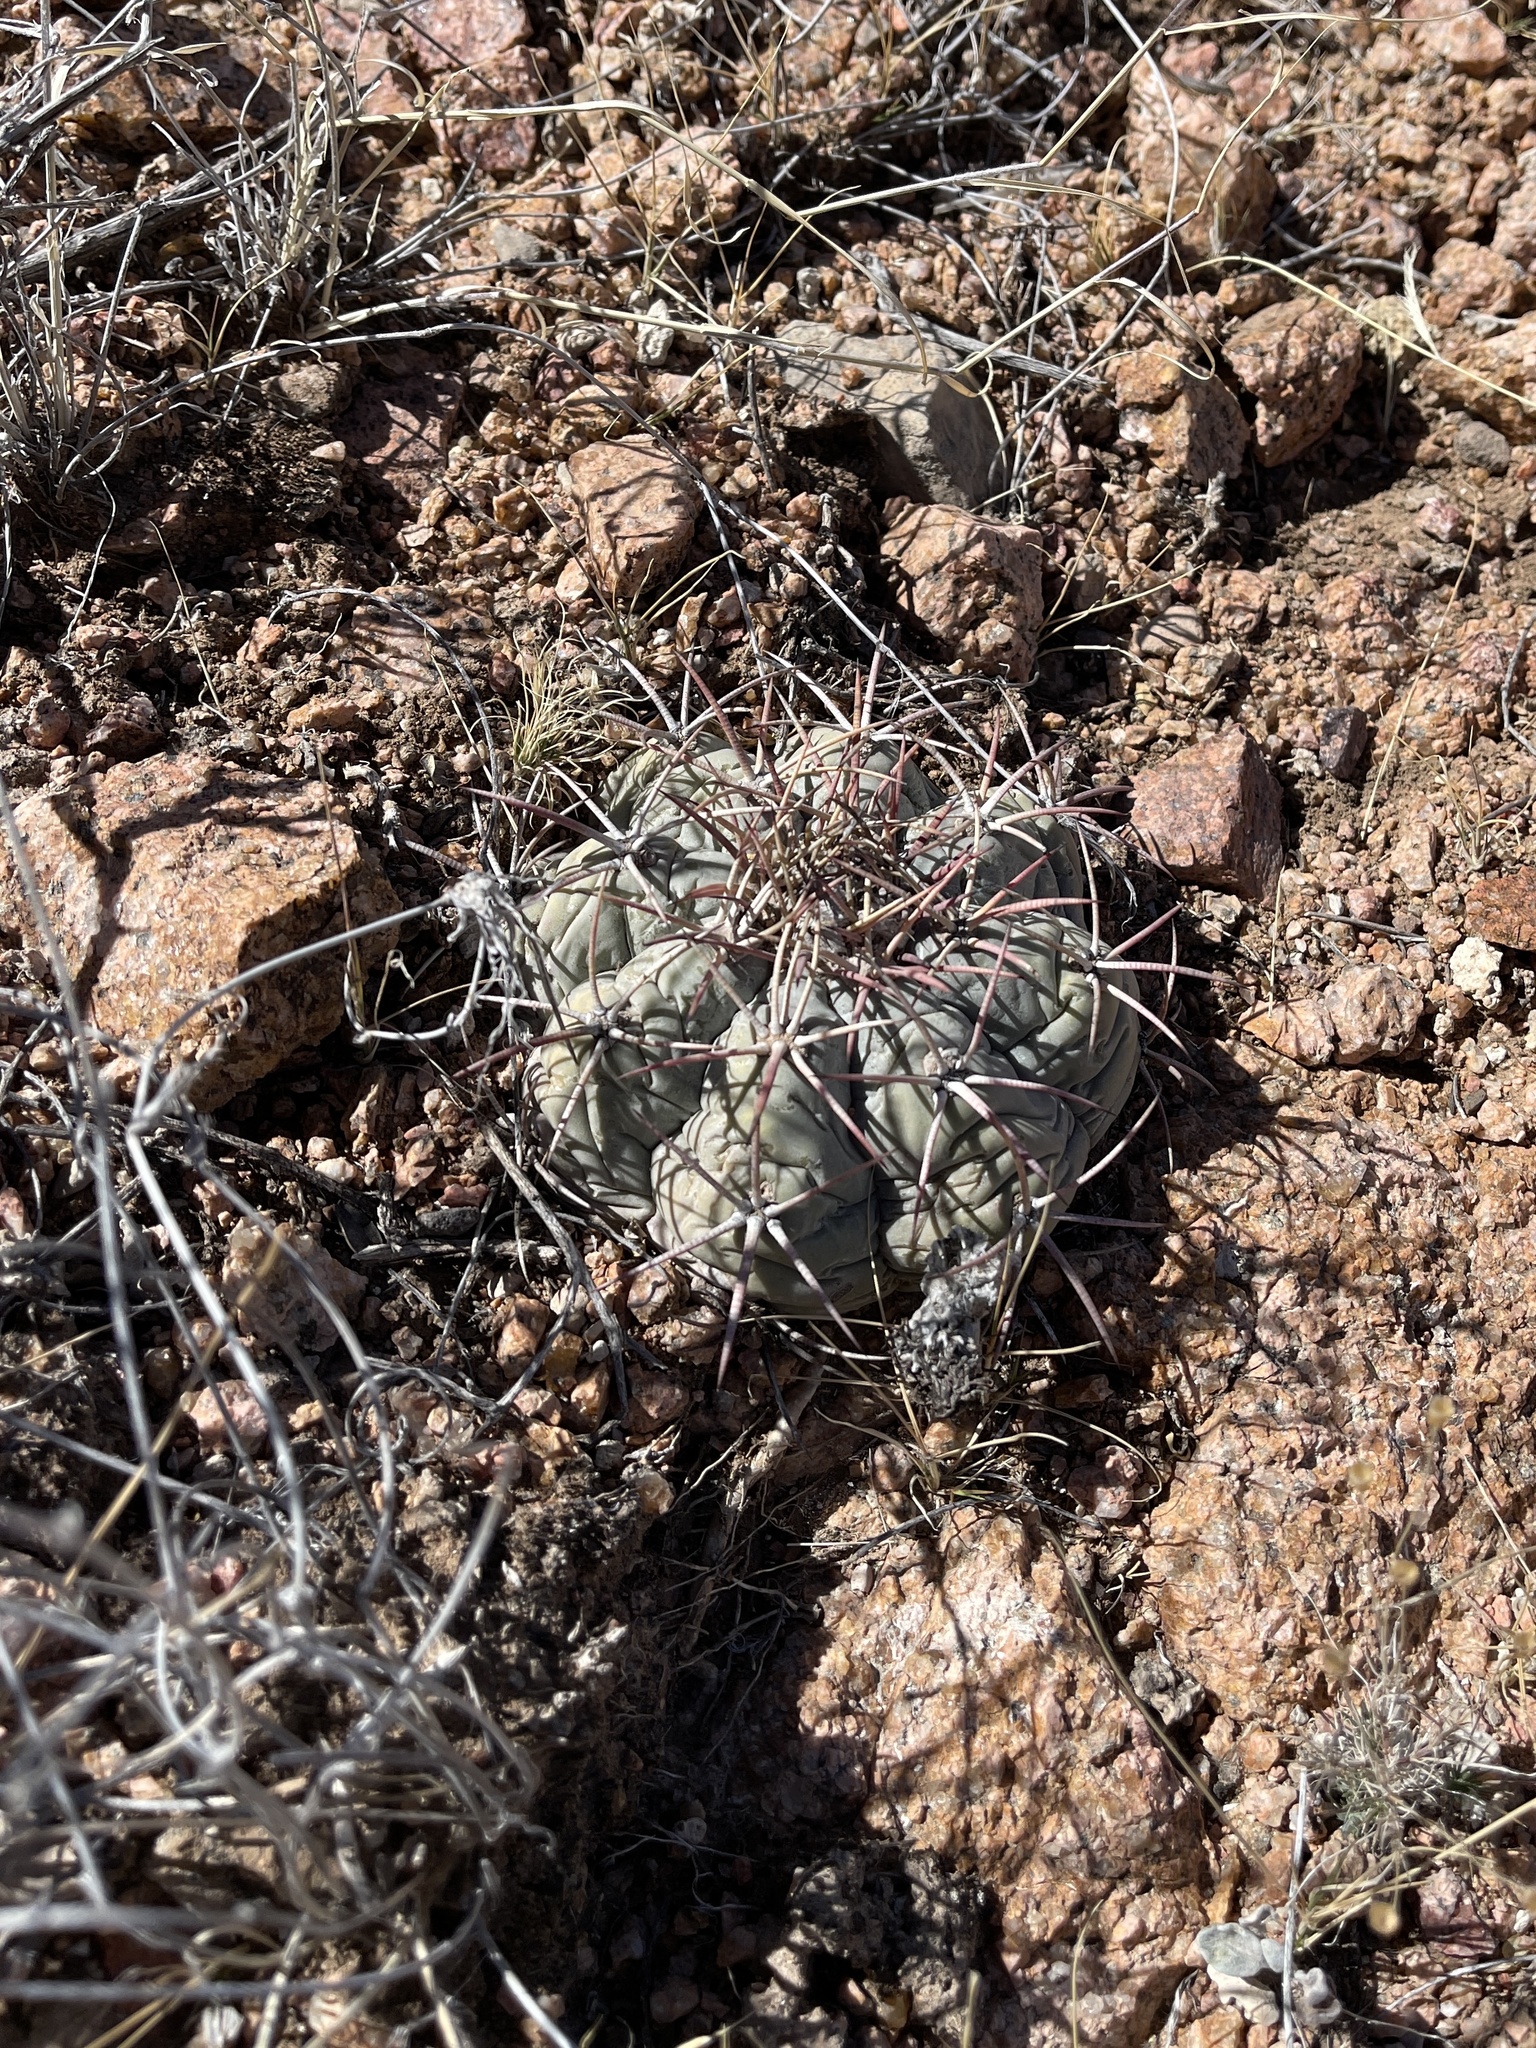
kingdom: Plantae
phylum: Tracheophyta
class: Magnoliopsida
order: Caryophyllales
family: Cactaceae
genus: Echinocactus
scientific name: Echinocactus horizonthalonius
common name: Devilshead
